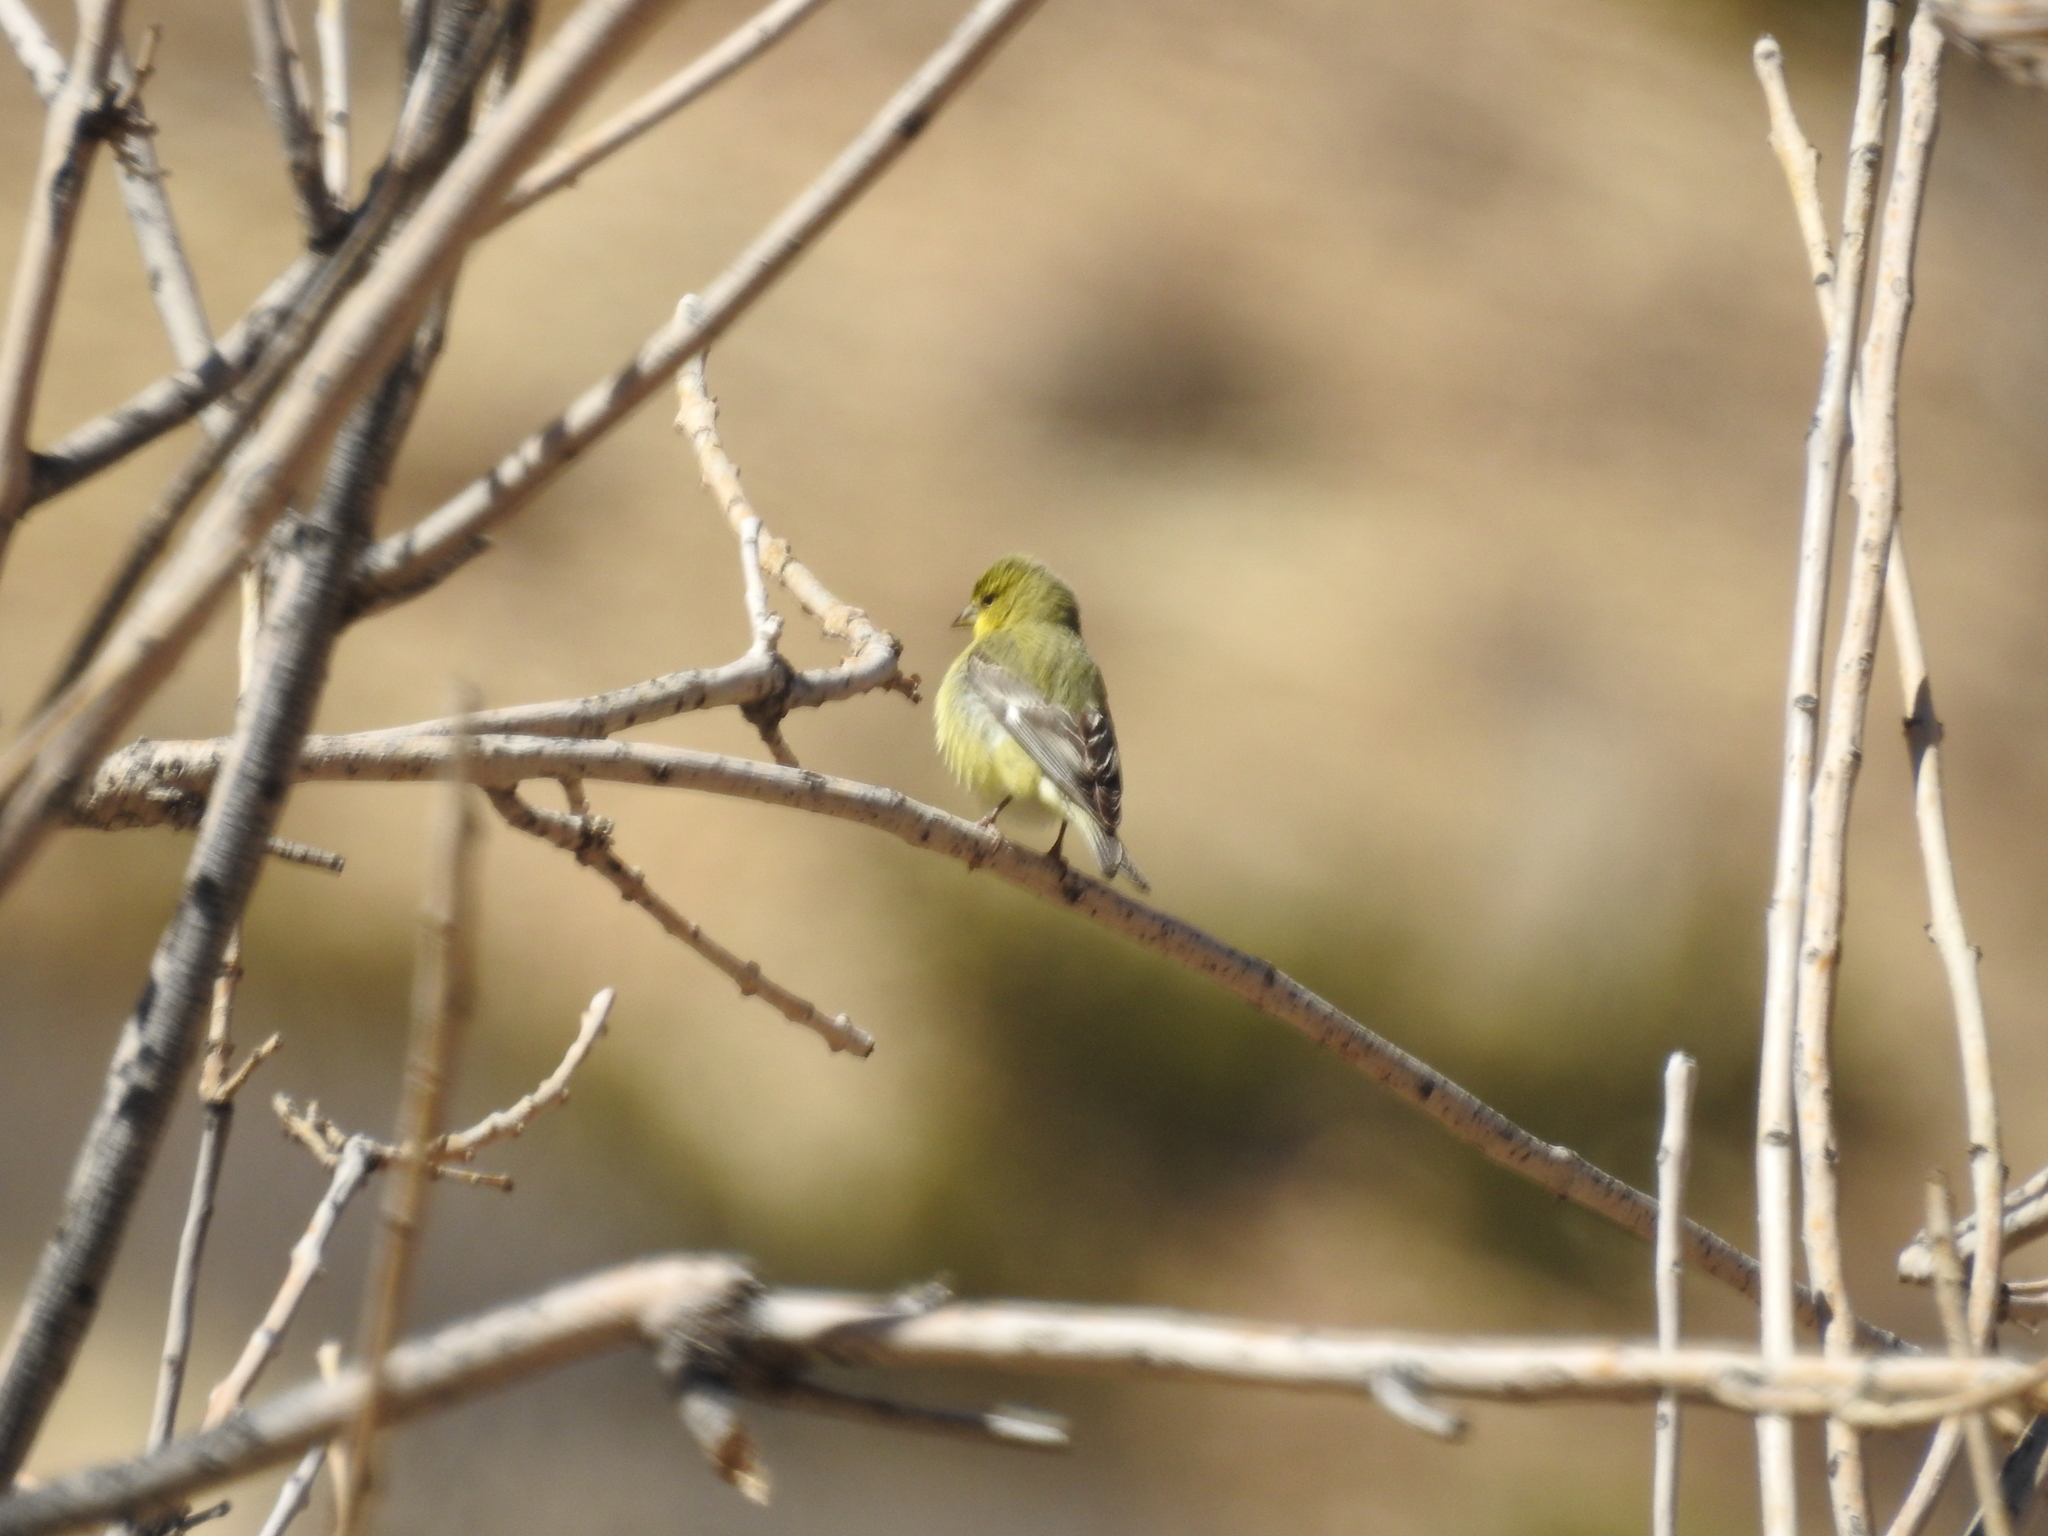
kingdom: Animalia
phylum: Chordata
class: Aves
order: Passeriformes
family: Fringillidae
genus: Spinus
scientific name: Spinus psaltria
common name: Lesser goldfinch
